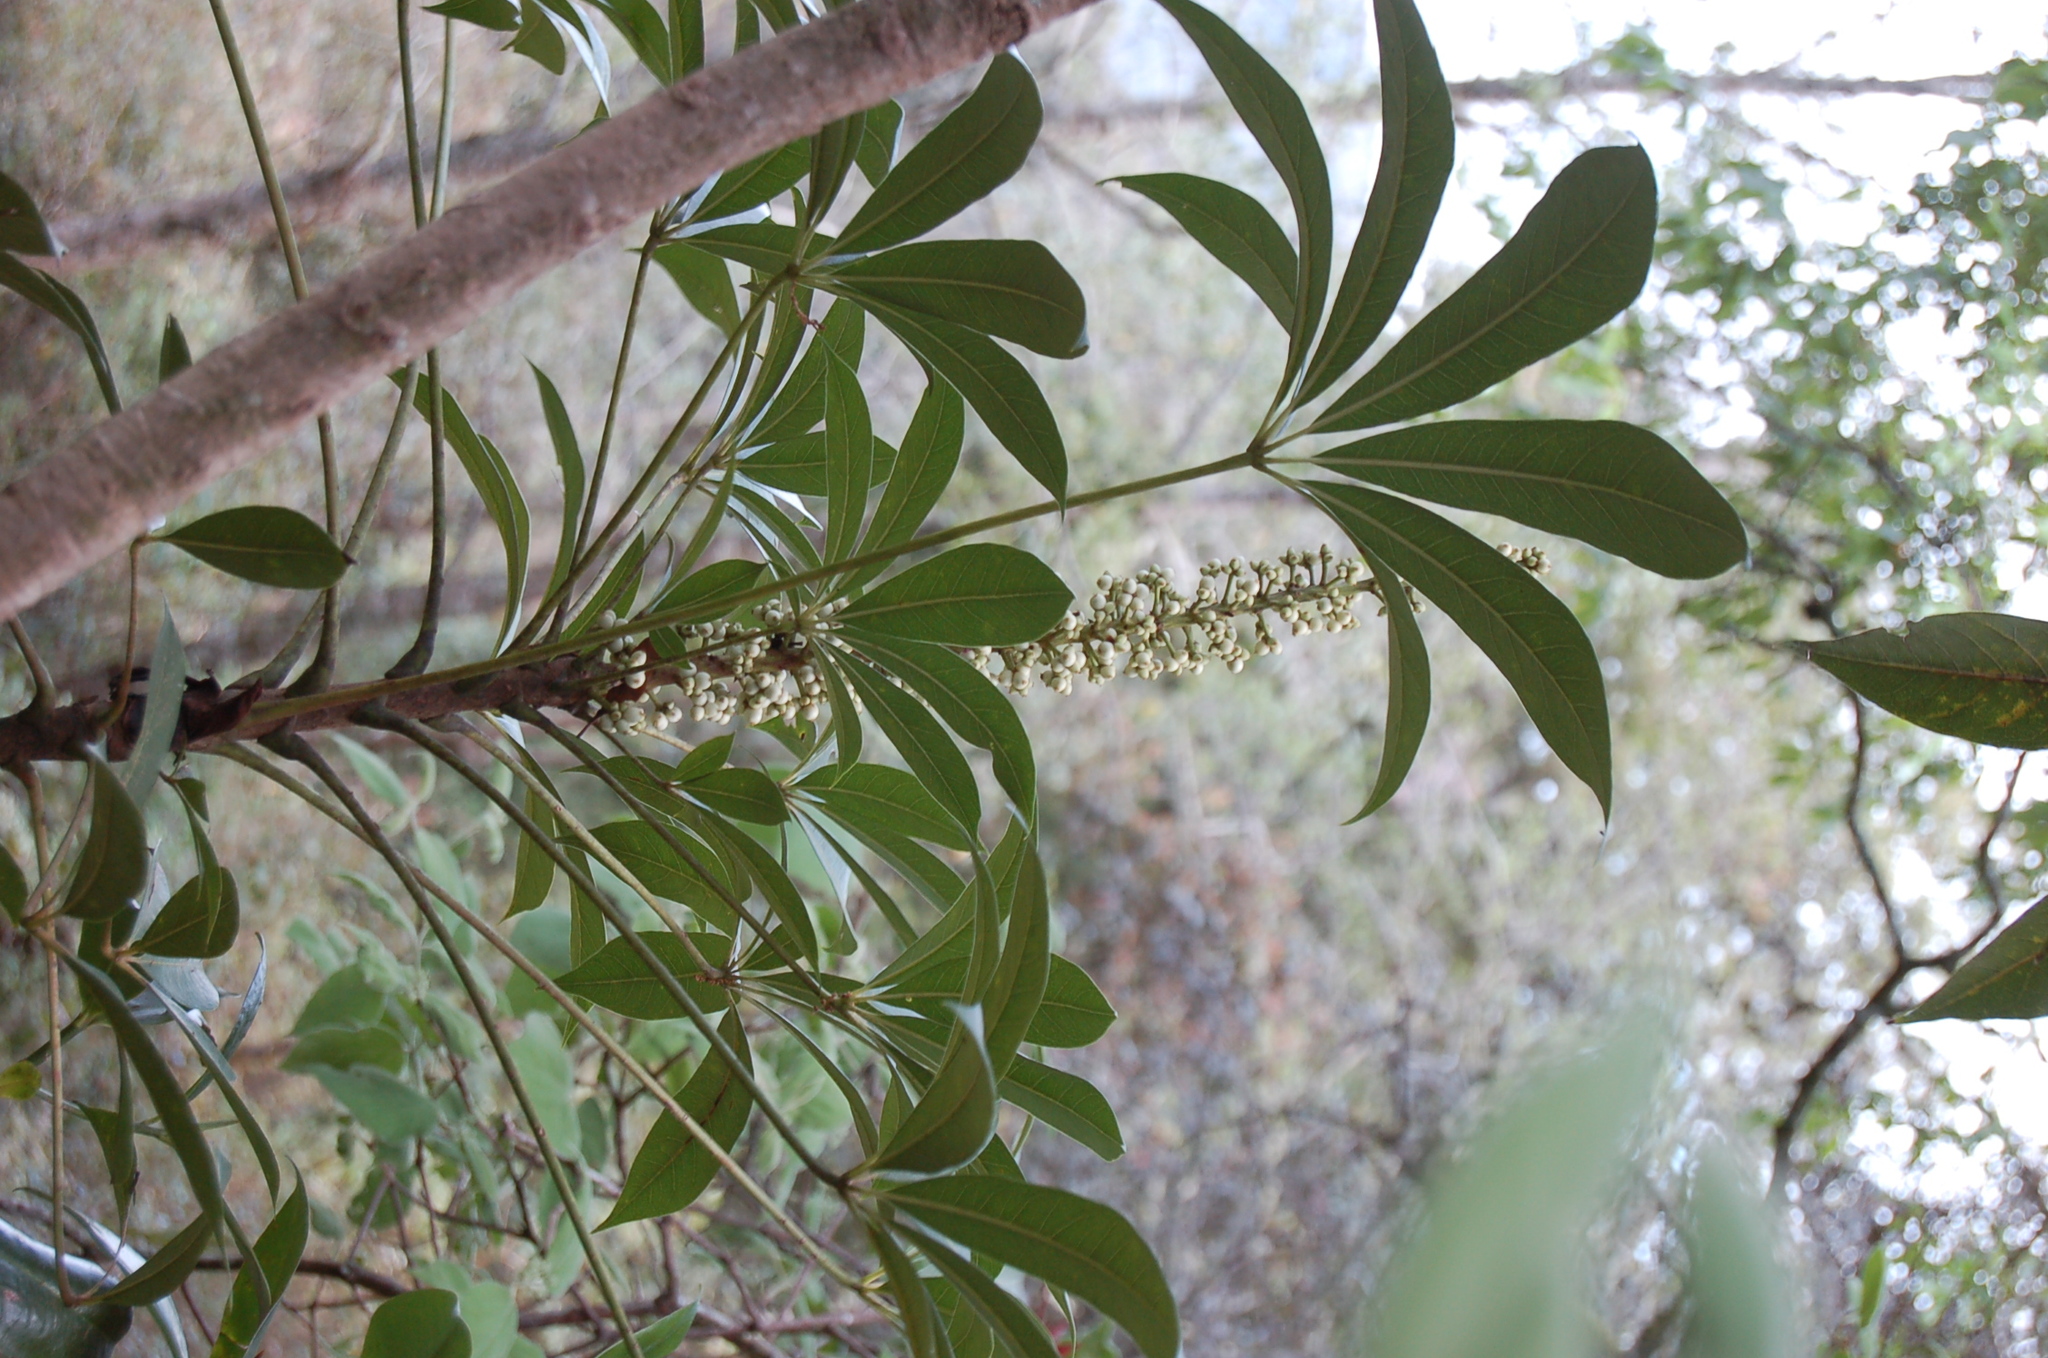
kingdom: Plantae
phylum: Tracheophyta
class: Magnoliopsida
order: Apiales
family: Araliaceae
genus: Oreopanax
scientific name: Oreopanax xalapensis
